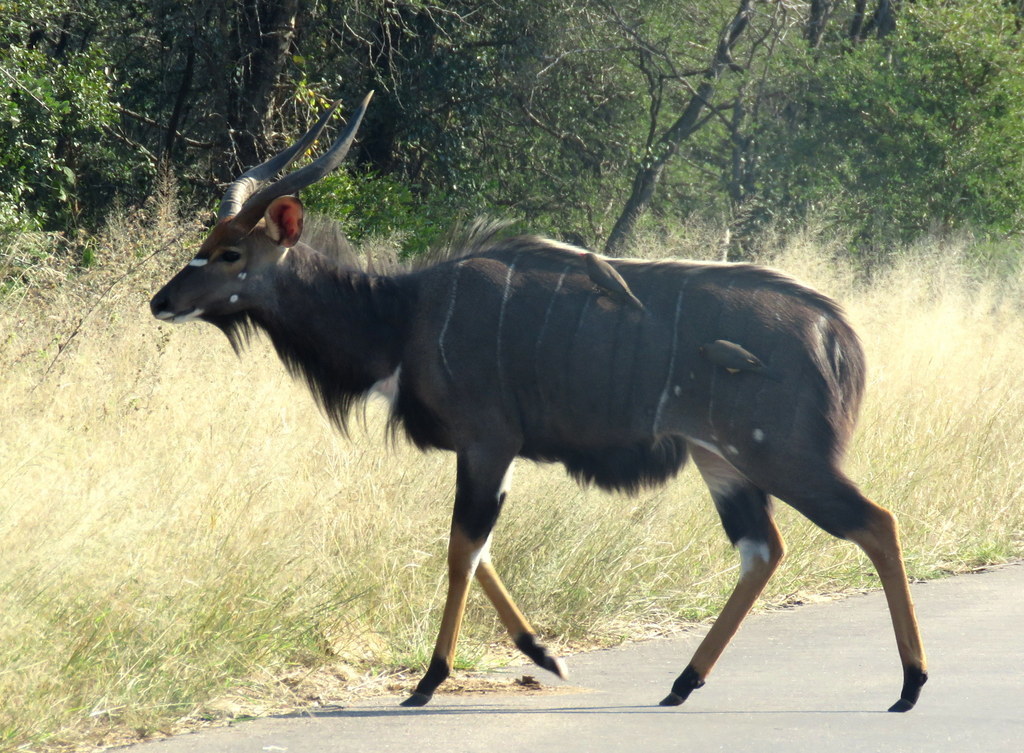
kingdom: Animalia
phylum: Chordata
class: Mammalia
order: Artiodactyla
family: Bovidae
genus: Tragelaphus
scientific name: Tragelaphus angasii
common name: Nyala
